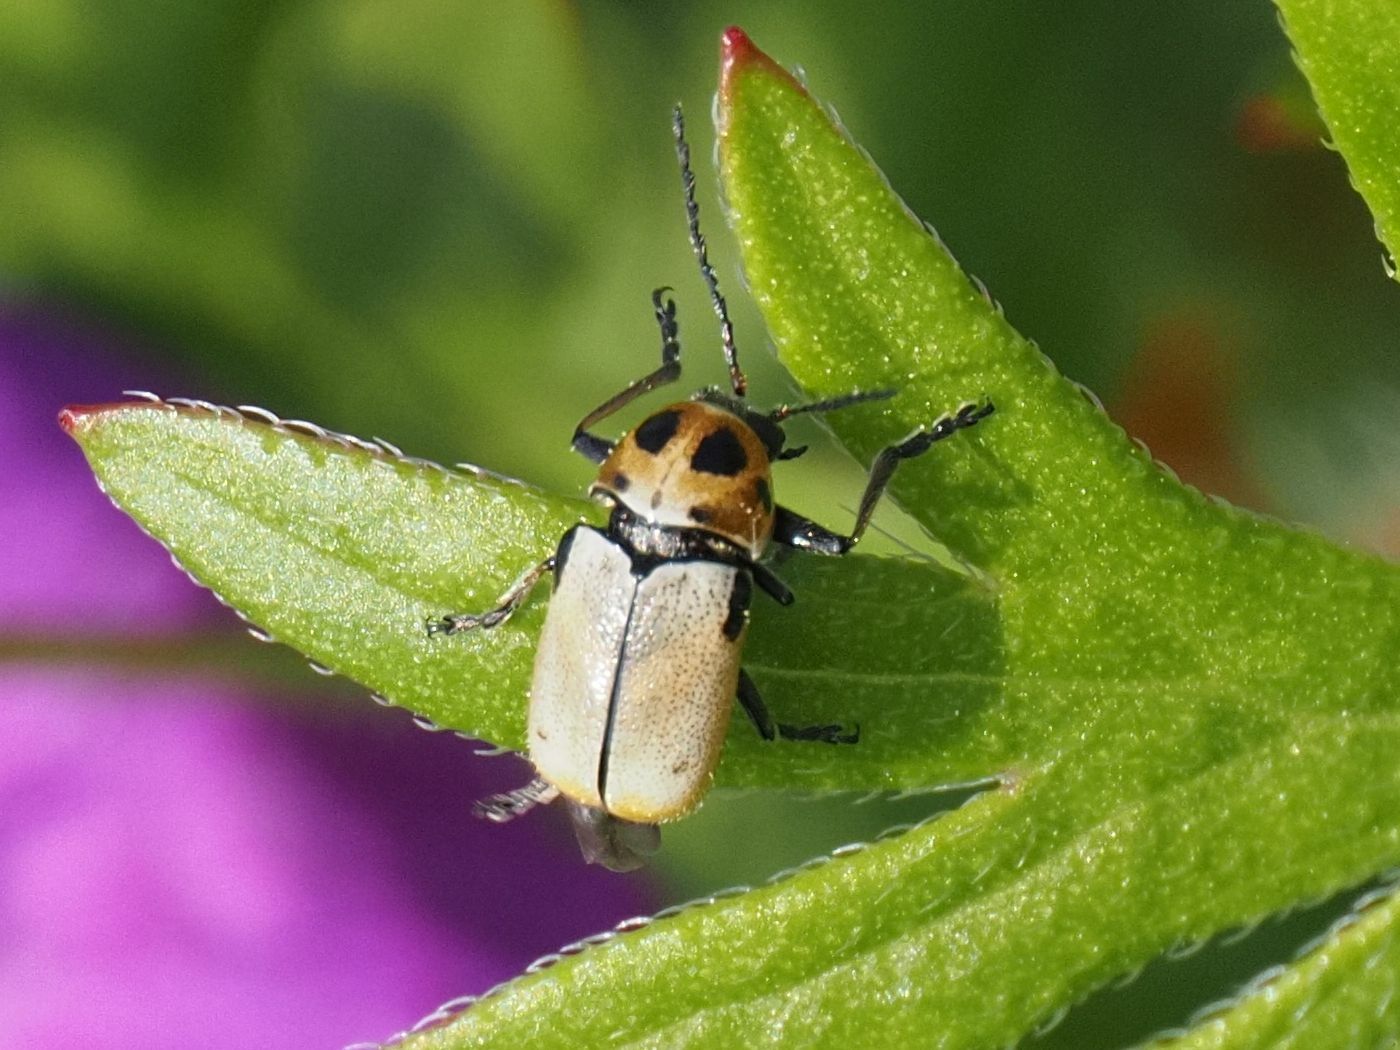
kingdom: Animalia
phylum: Arthropoda
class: Insecta
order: Coleoptera
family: Chrysomelidae
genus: Cryptocephalus
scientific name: Cryptocephalus quatuordecimmaculatus
